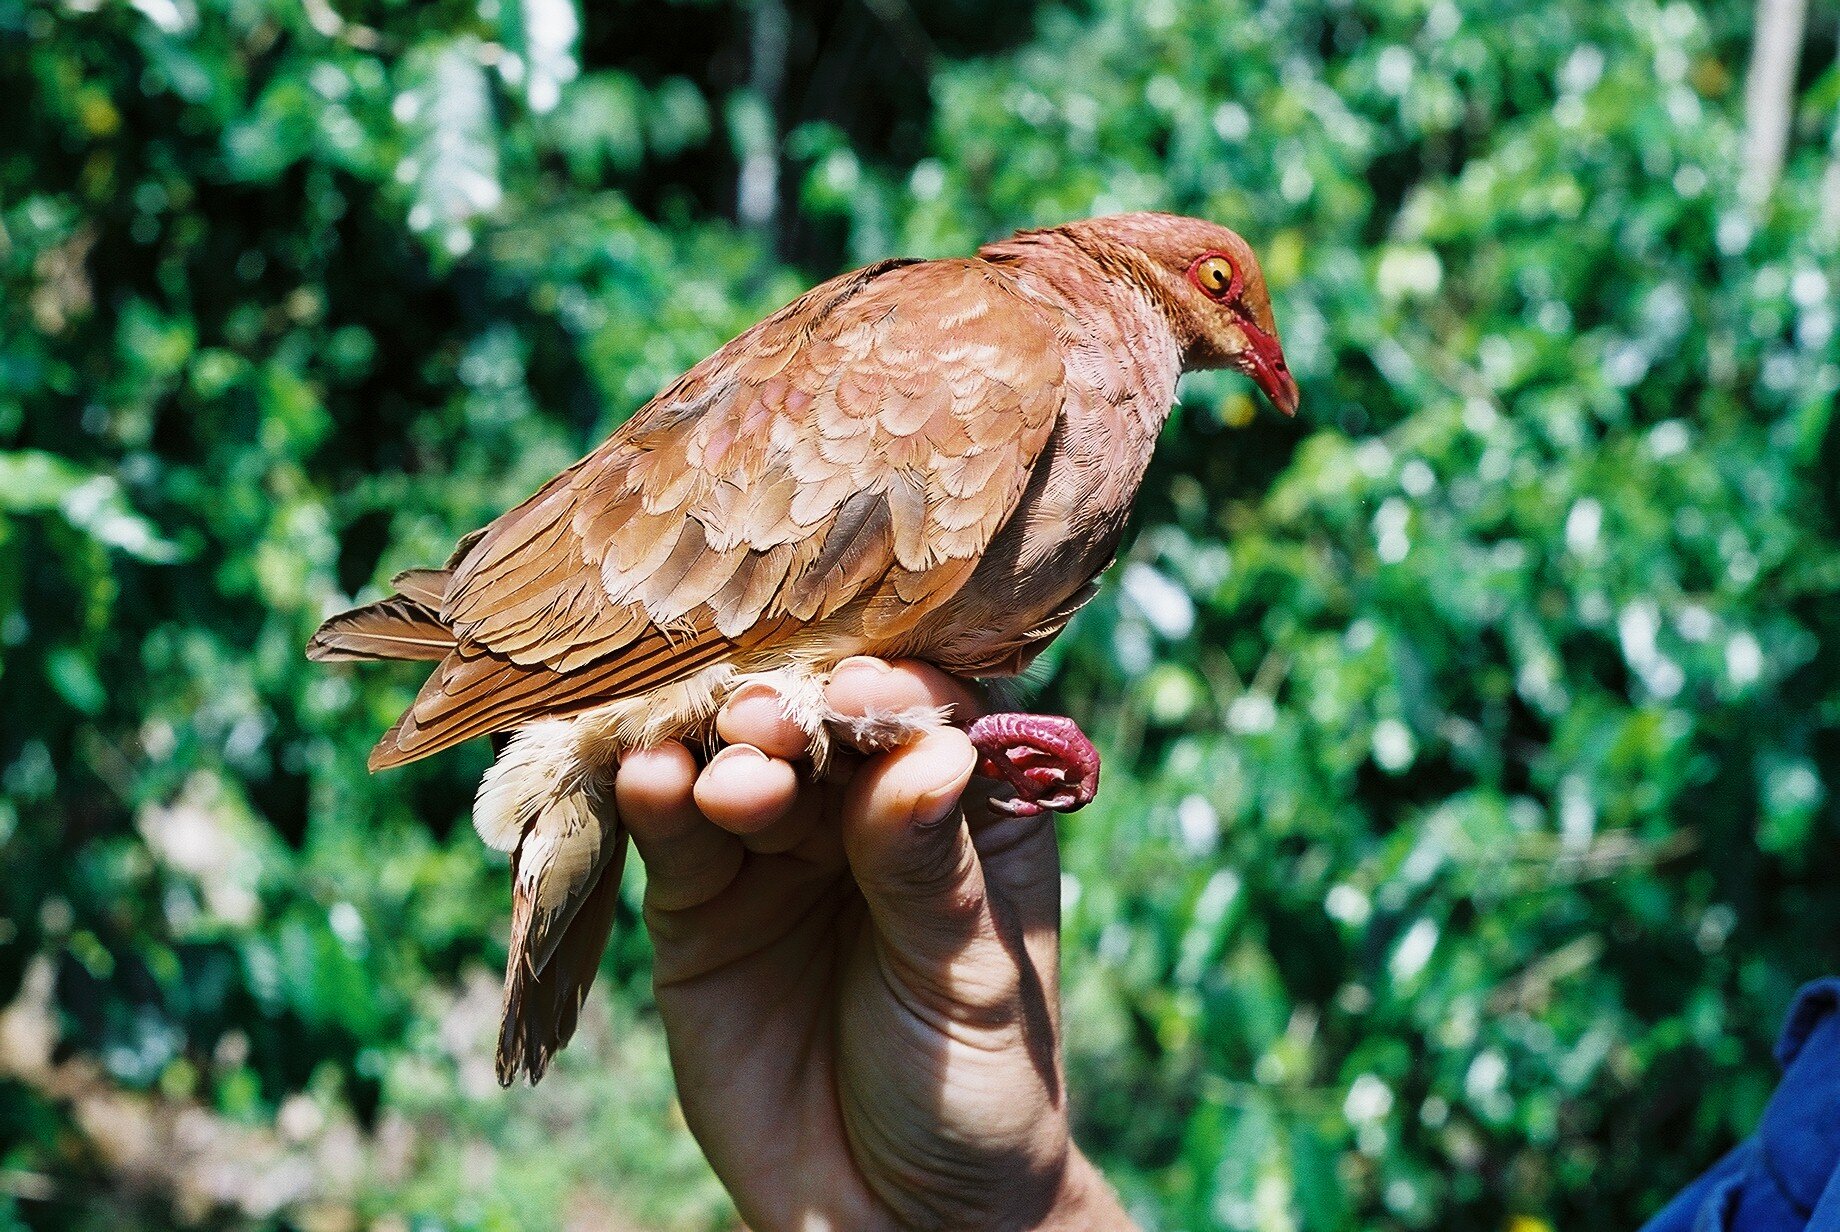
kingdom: Animalia
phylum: Chordata
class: Aves
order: Columbiformes
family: Columbidae
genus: Geotrygon
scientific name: Geotrygon montana
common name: Ruddy quail-dove
